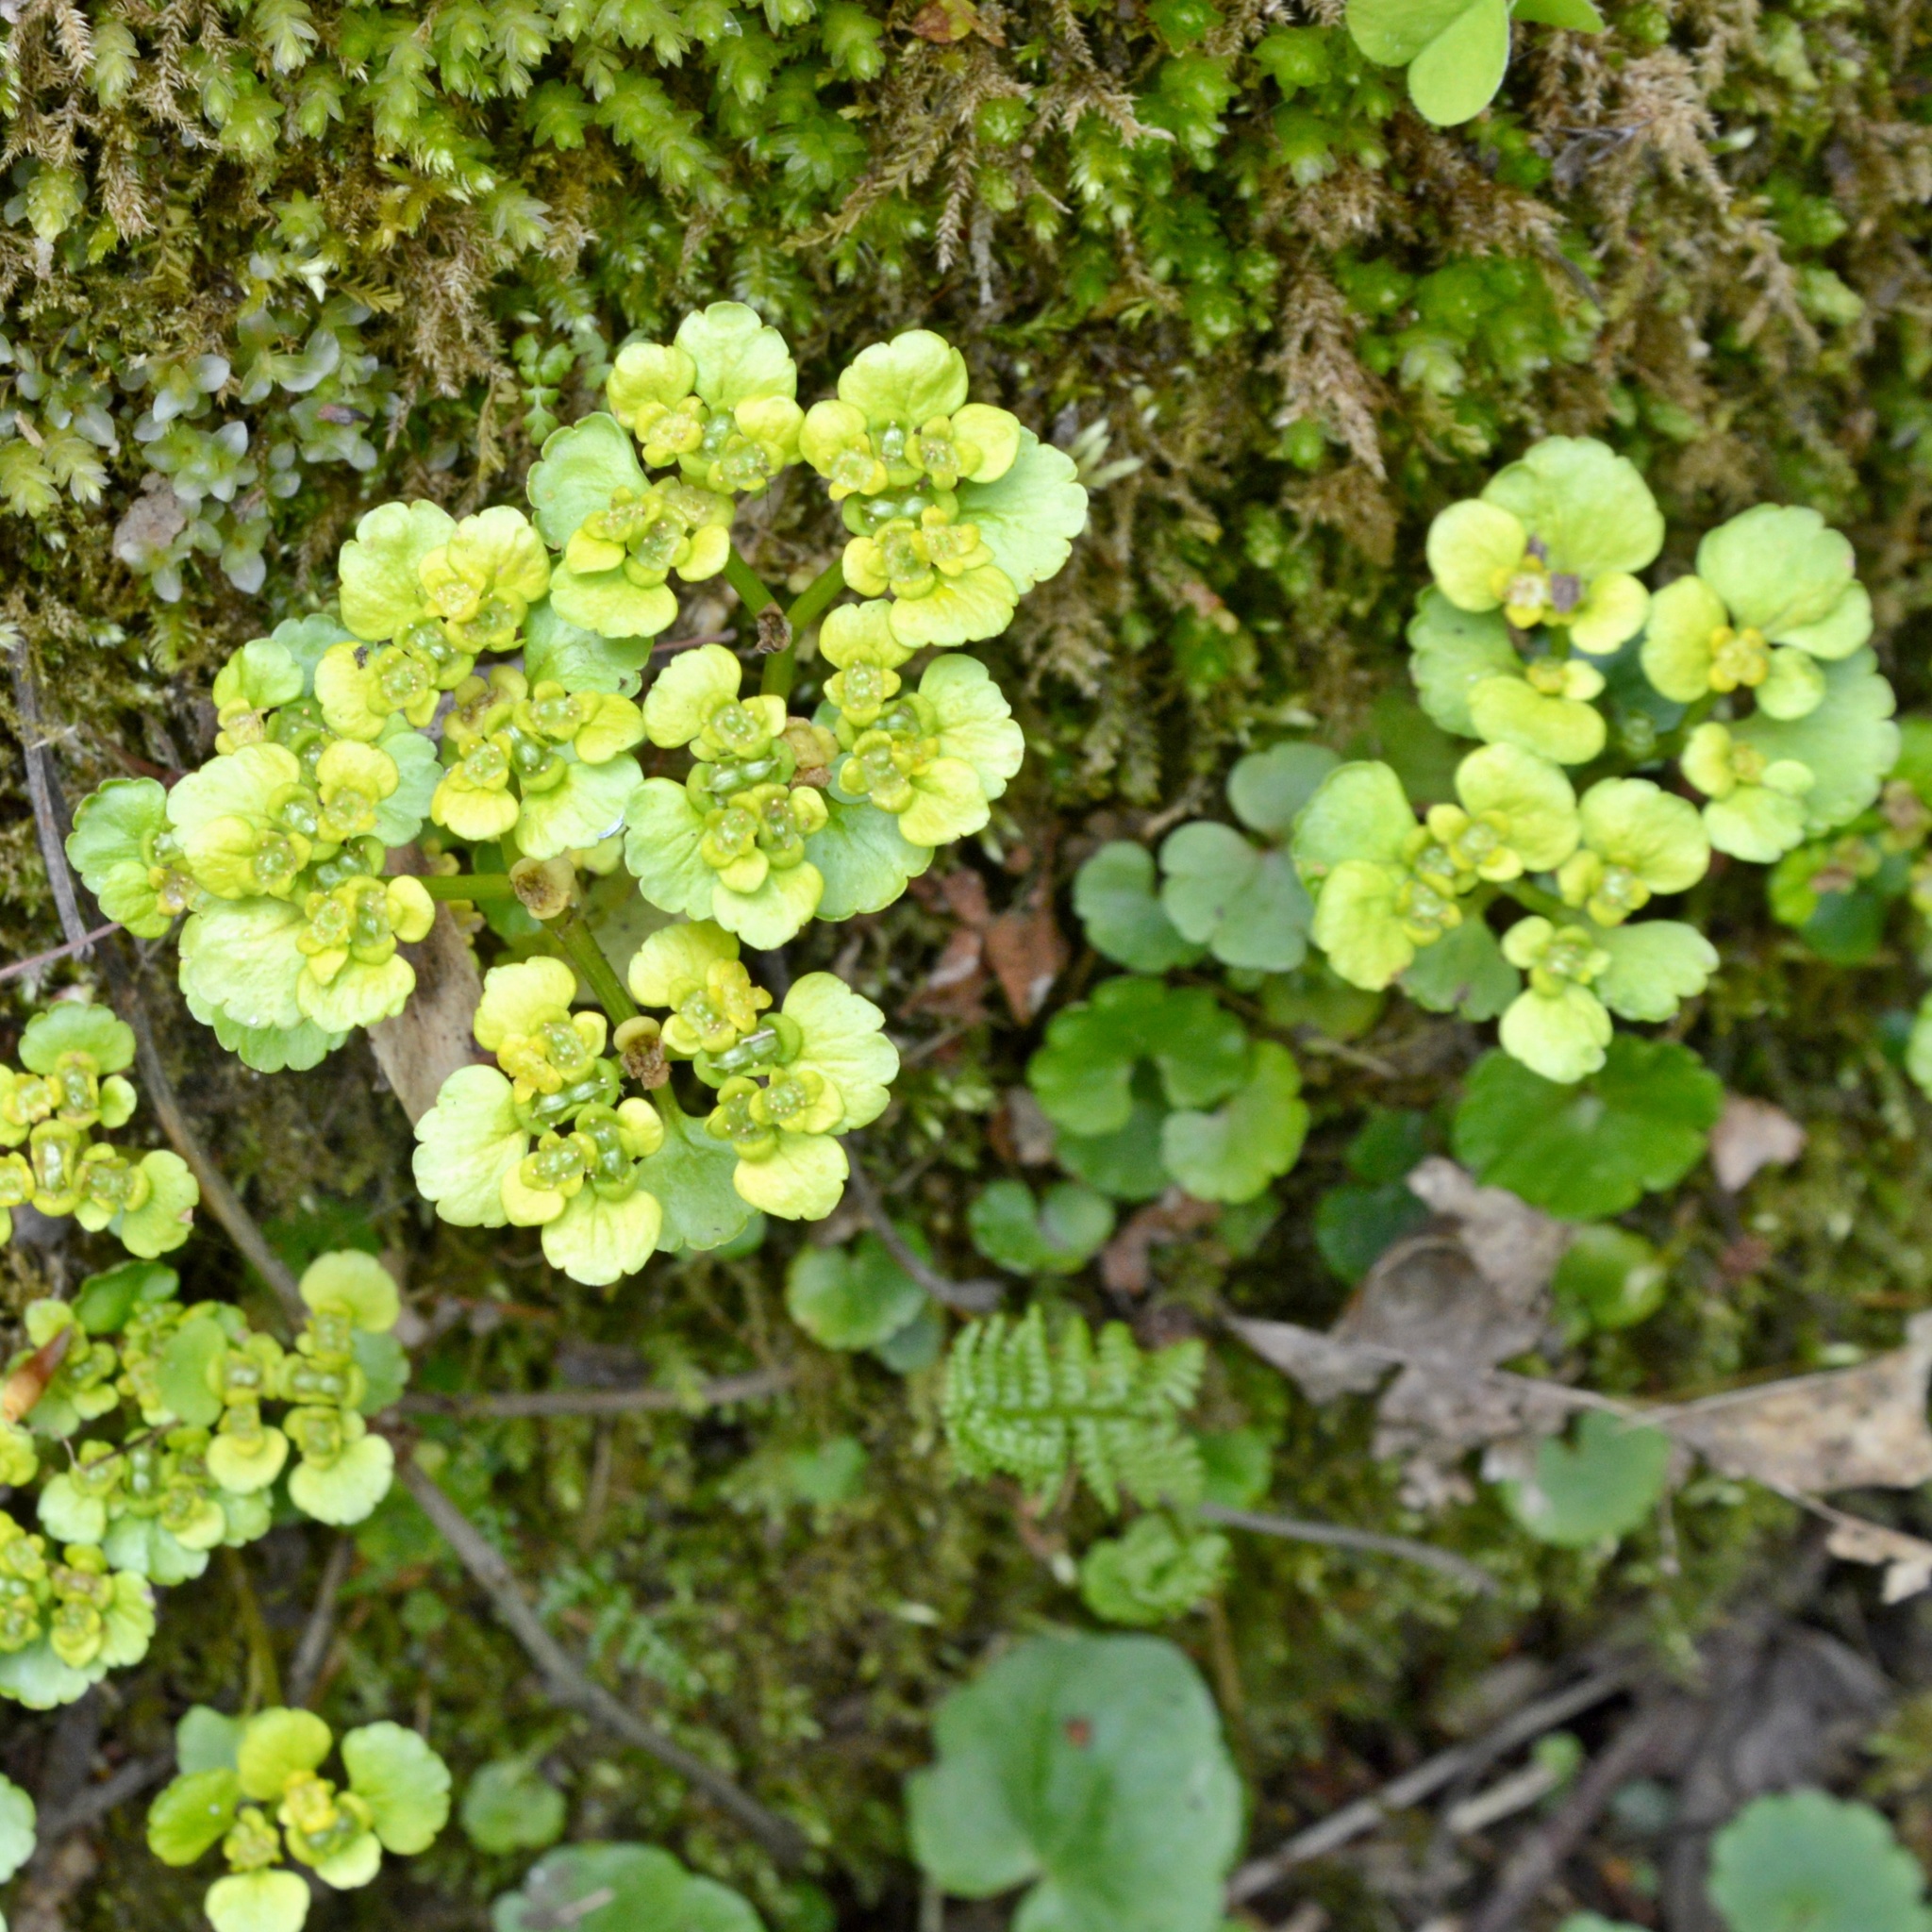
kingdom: Plantae
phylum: Tracheophyta
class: Magnoliopsida
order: Saxifragales
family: Saxifragaceae
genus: Chrysosplenium
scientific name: Chrysosplenium alternifolium
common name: Alternate-leaved golden-saxifrage
